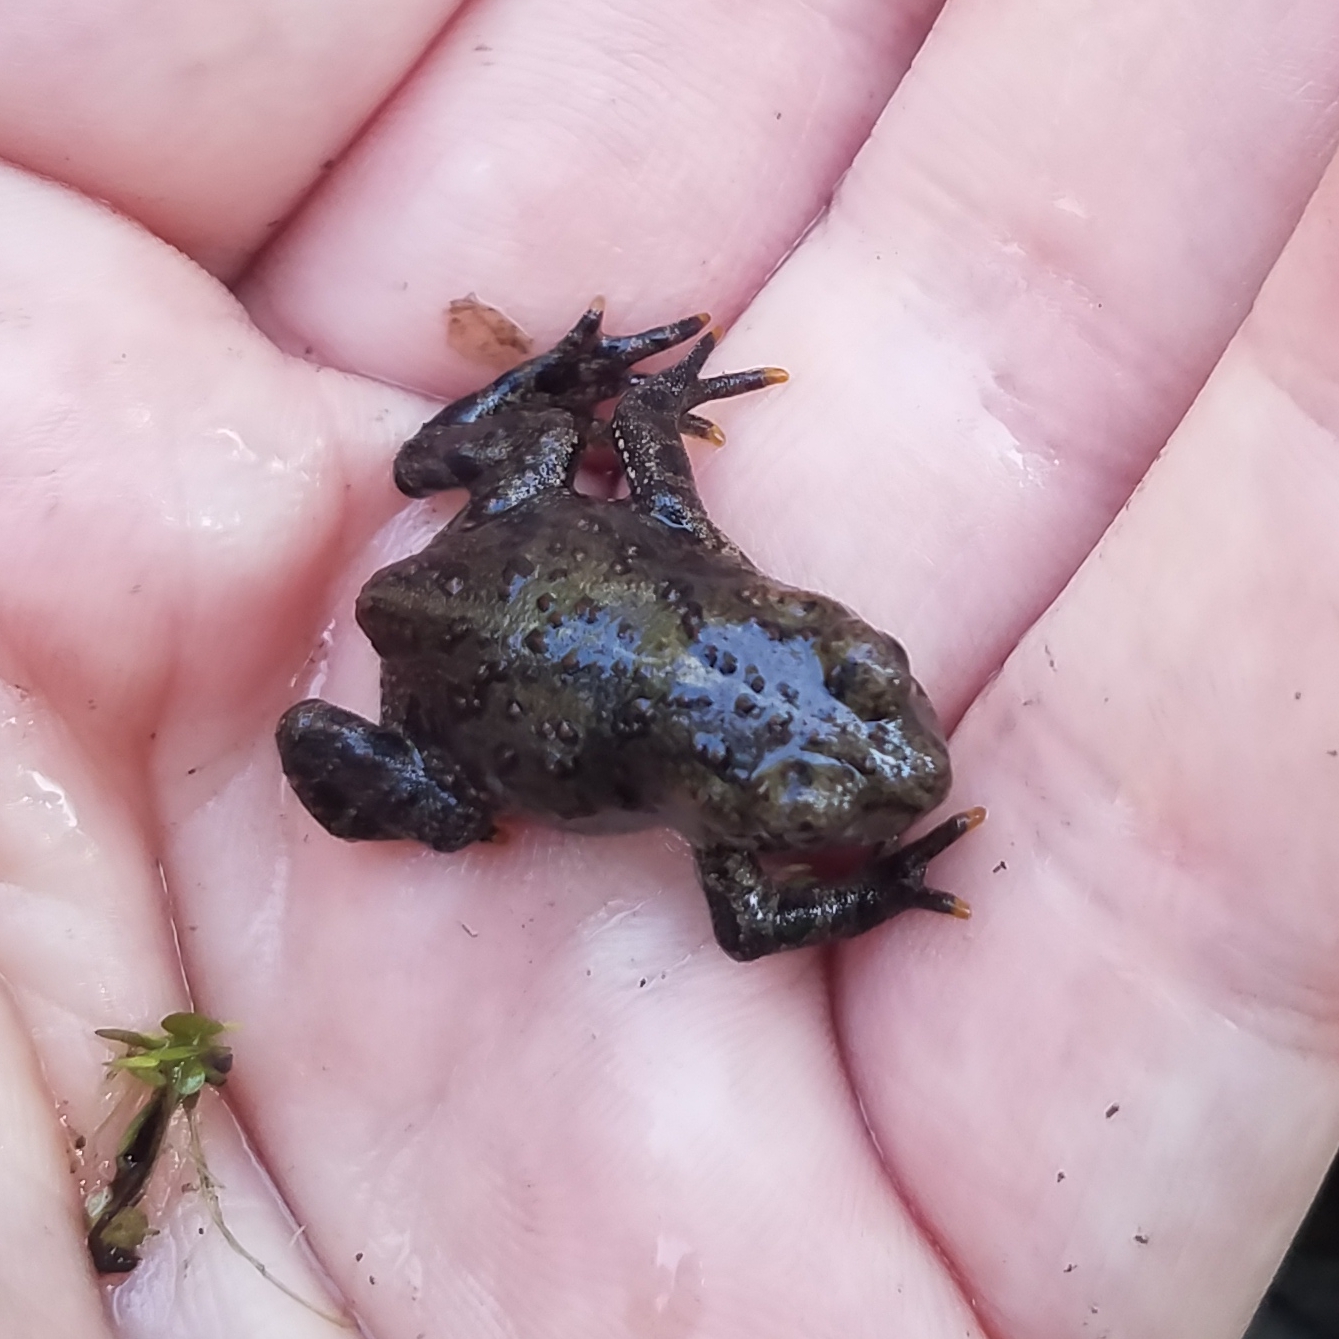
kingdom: Animalia
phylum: Chordata
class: Amphibia
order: Anura
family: Bufonidae
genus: Anaxyrus
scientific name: Anaxyrus boreas
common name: Western toad
